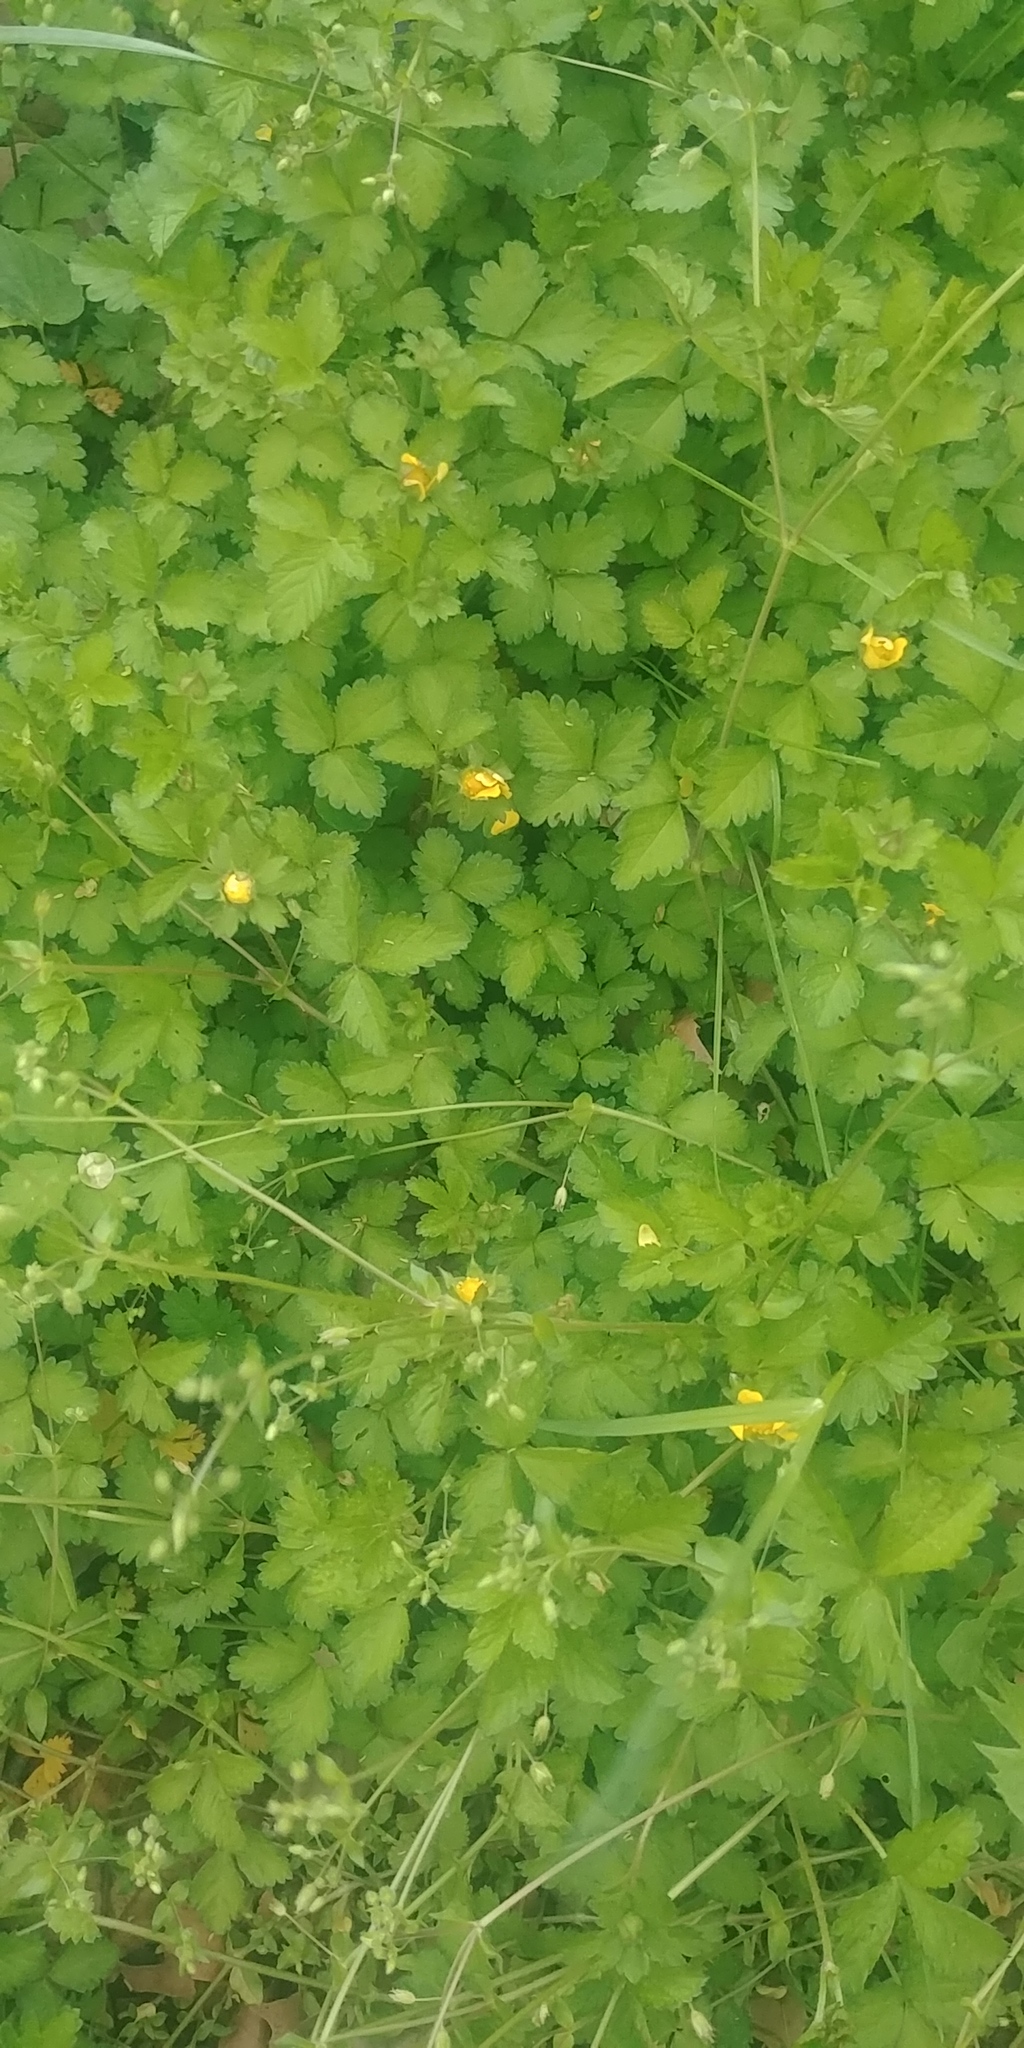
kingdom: Plantae
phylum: Tracheophyta
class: Magnoliopsida
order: Rosales
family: Rosaceae
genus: Potentilla
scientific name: Potentilla indica
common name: Yellow-flowered strawberry
